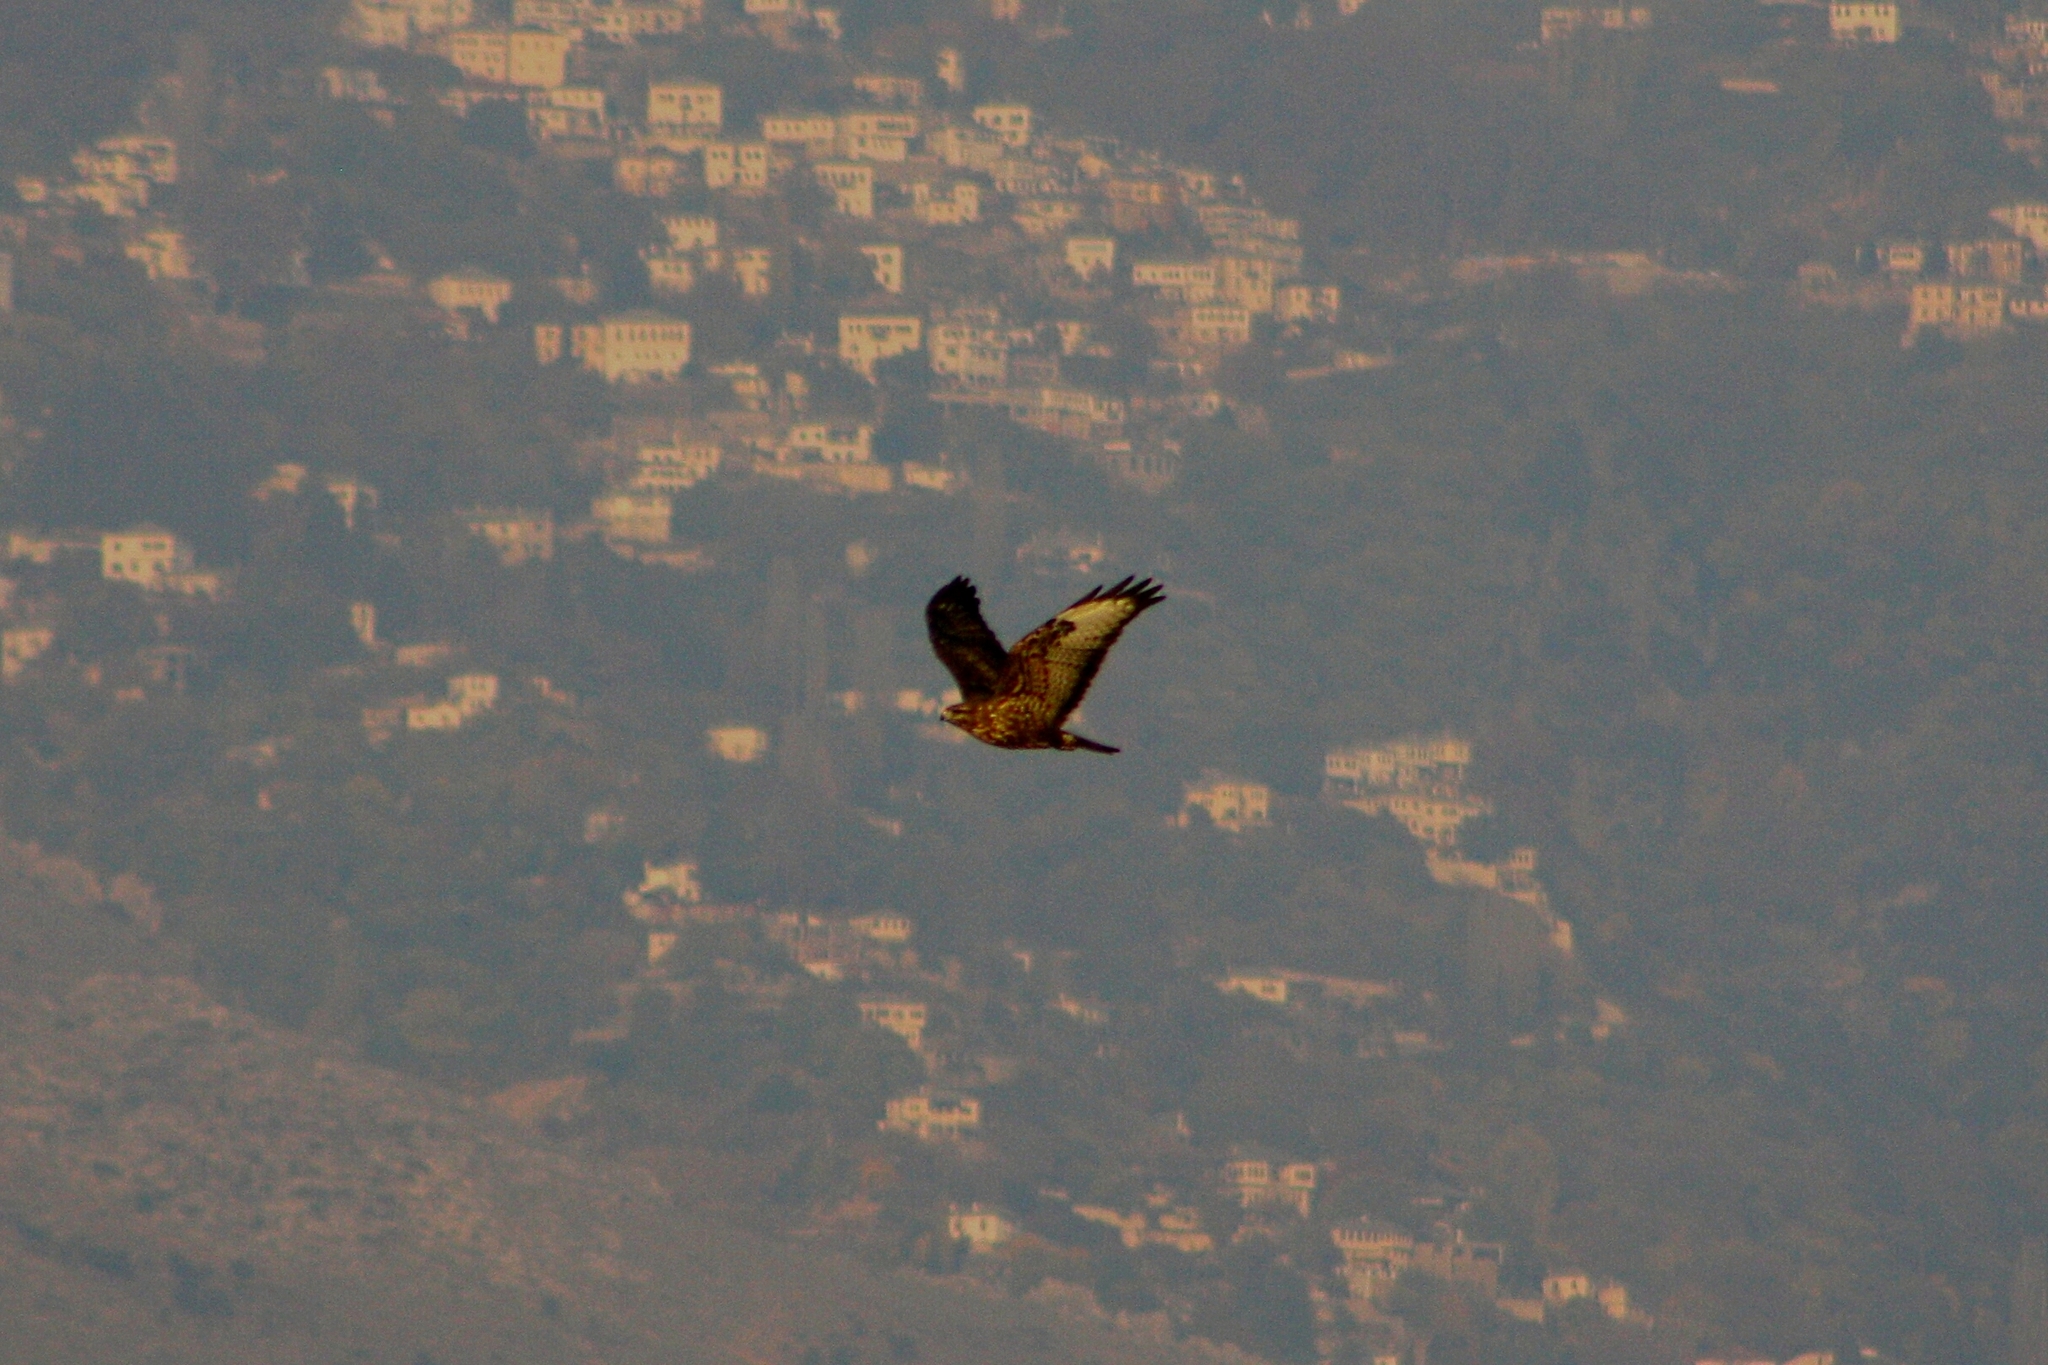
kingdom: Animalia
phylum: Chordata
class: Aves
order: Accipitriformes
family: Accipitridae
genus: Buteo
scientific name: Buteo buteo
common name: Common buzzard
